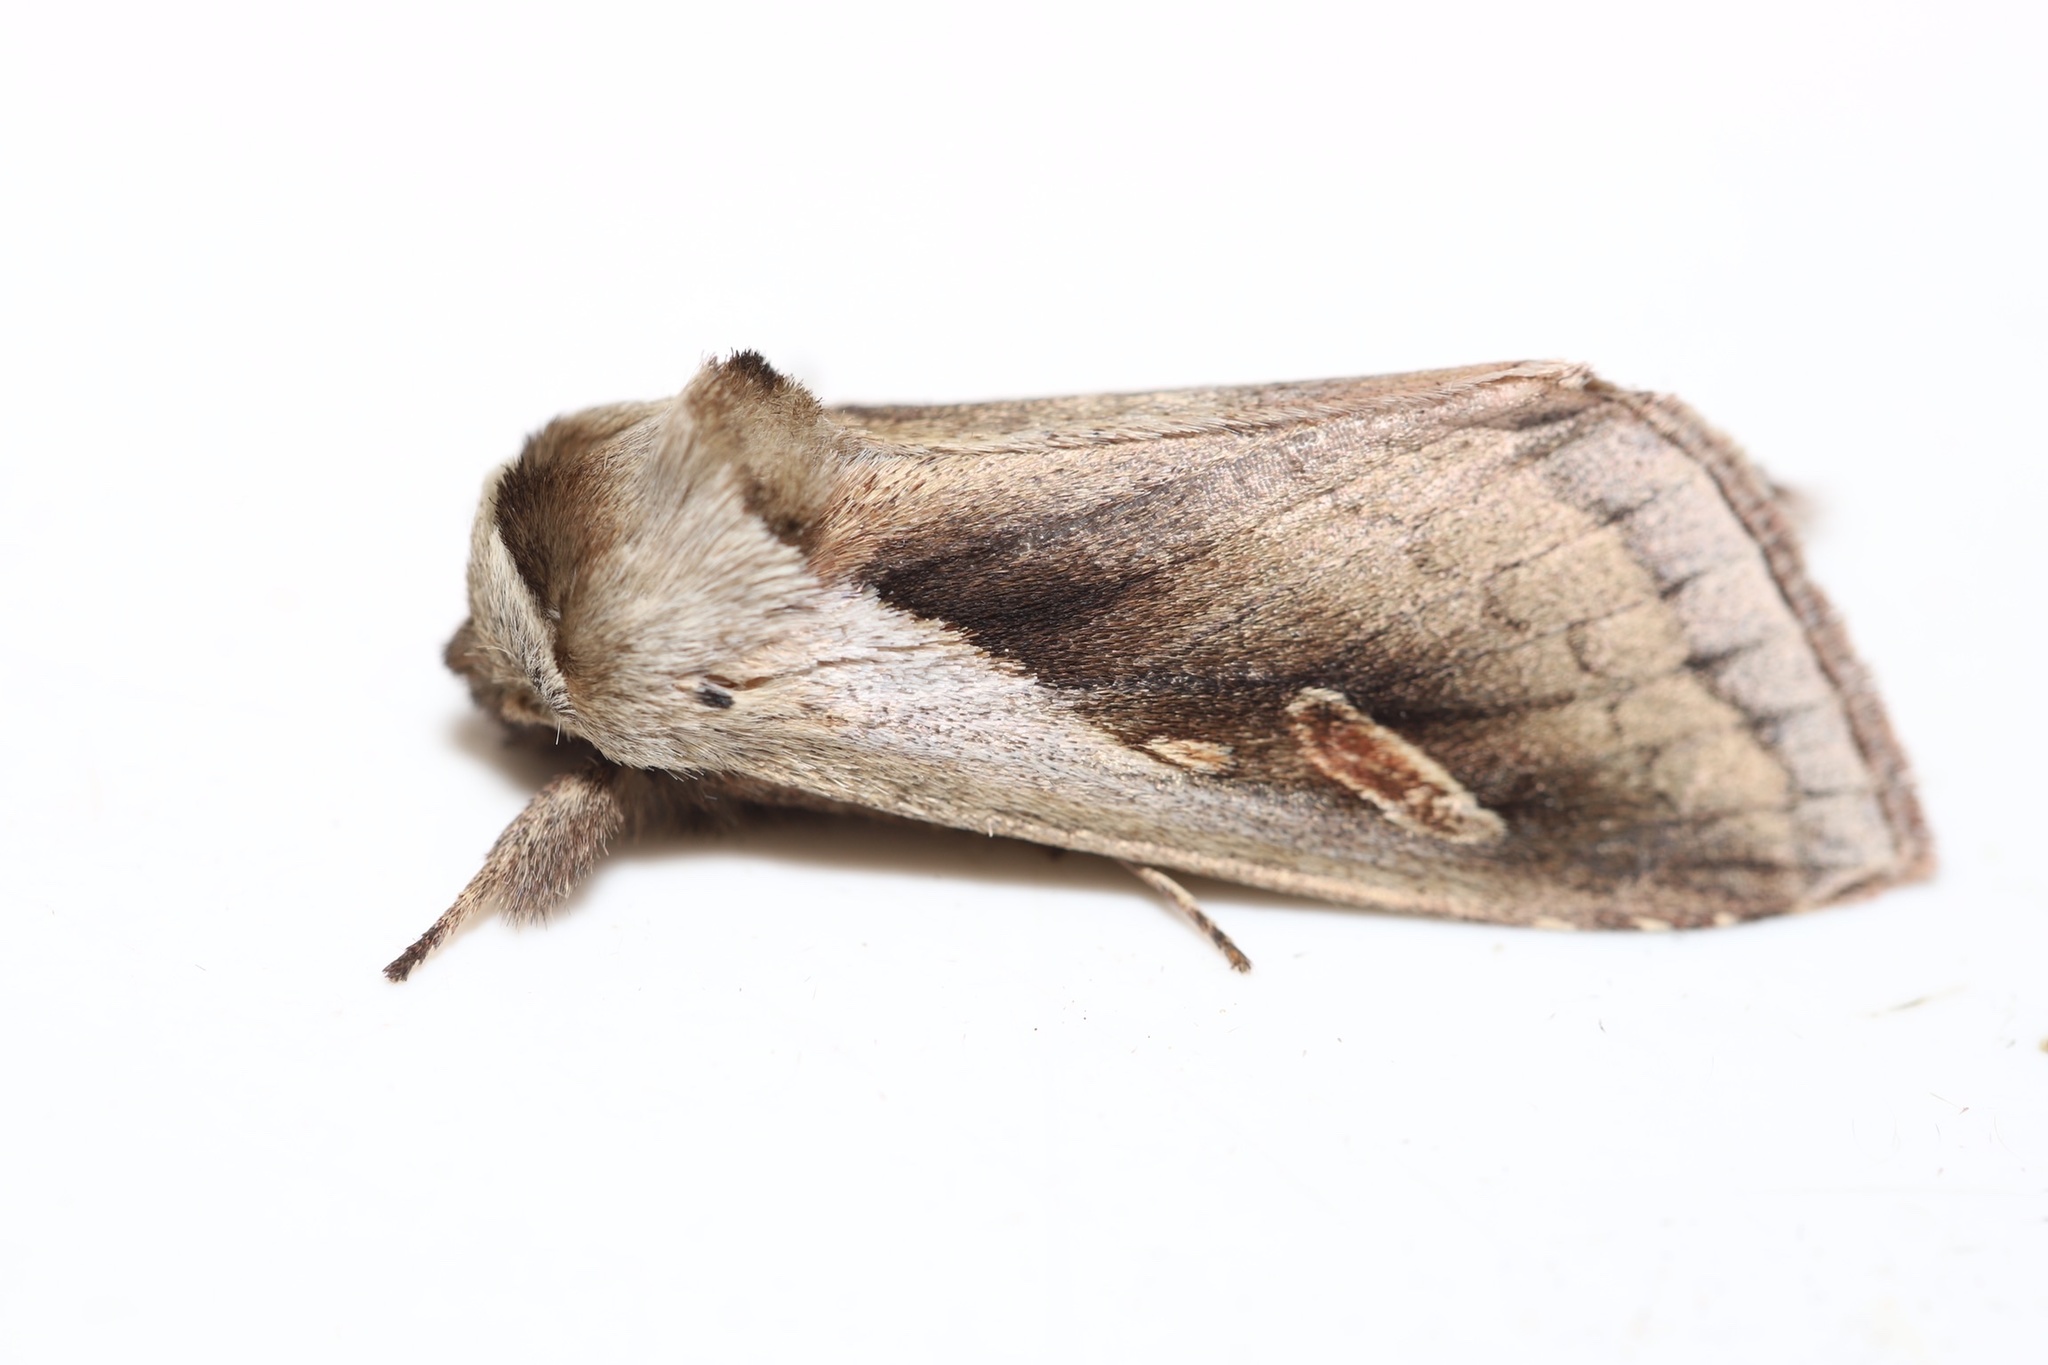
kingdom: Animalia
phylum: Arthropoda
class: Insecta
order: Lepidoptera
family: Noctuidae
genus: Bellura
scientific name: Bellura obliqua
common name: Cattail borer moth
